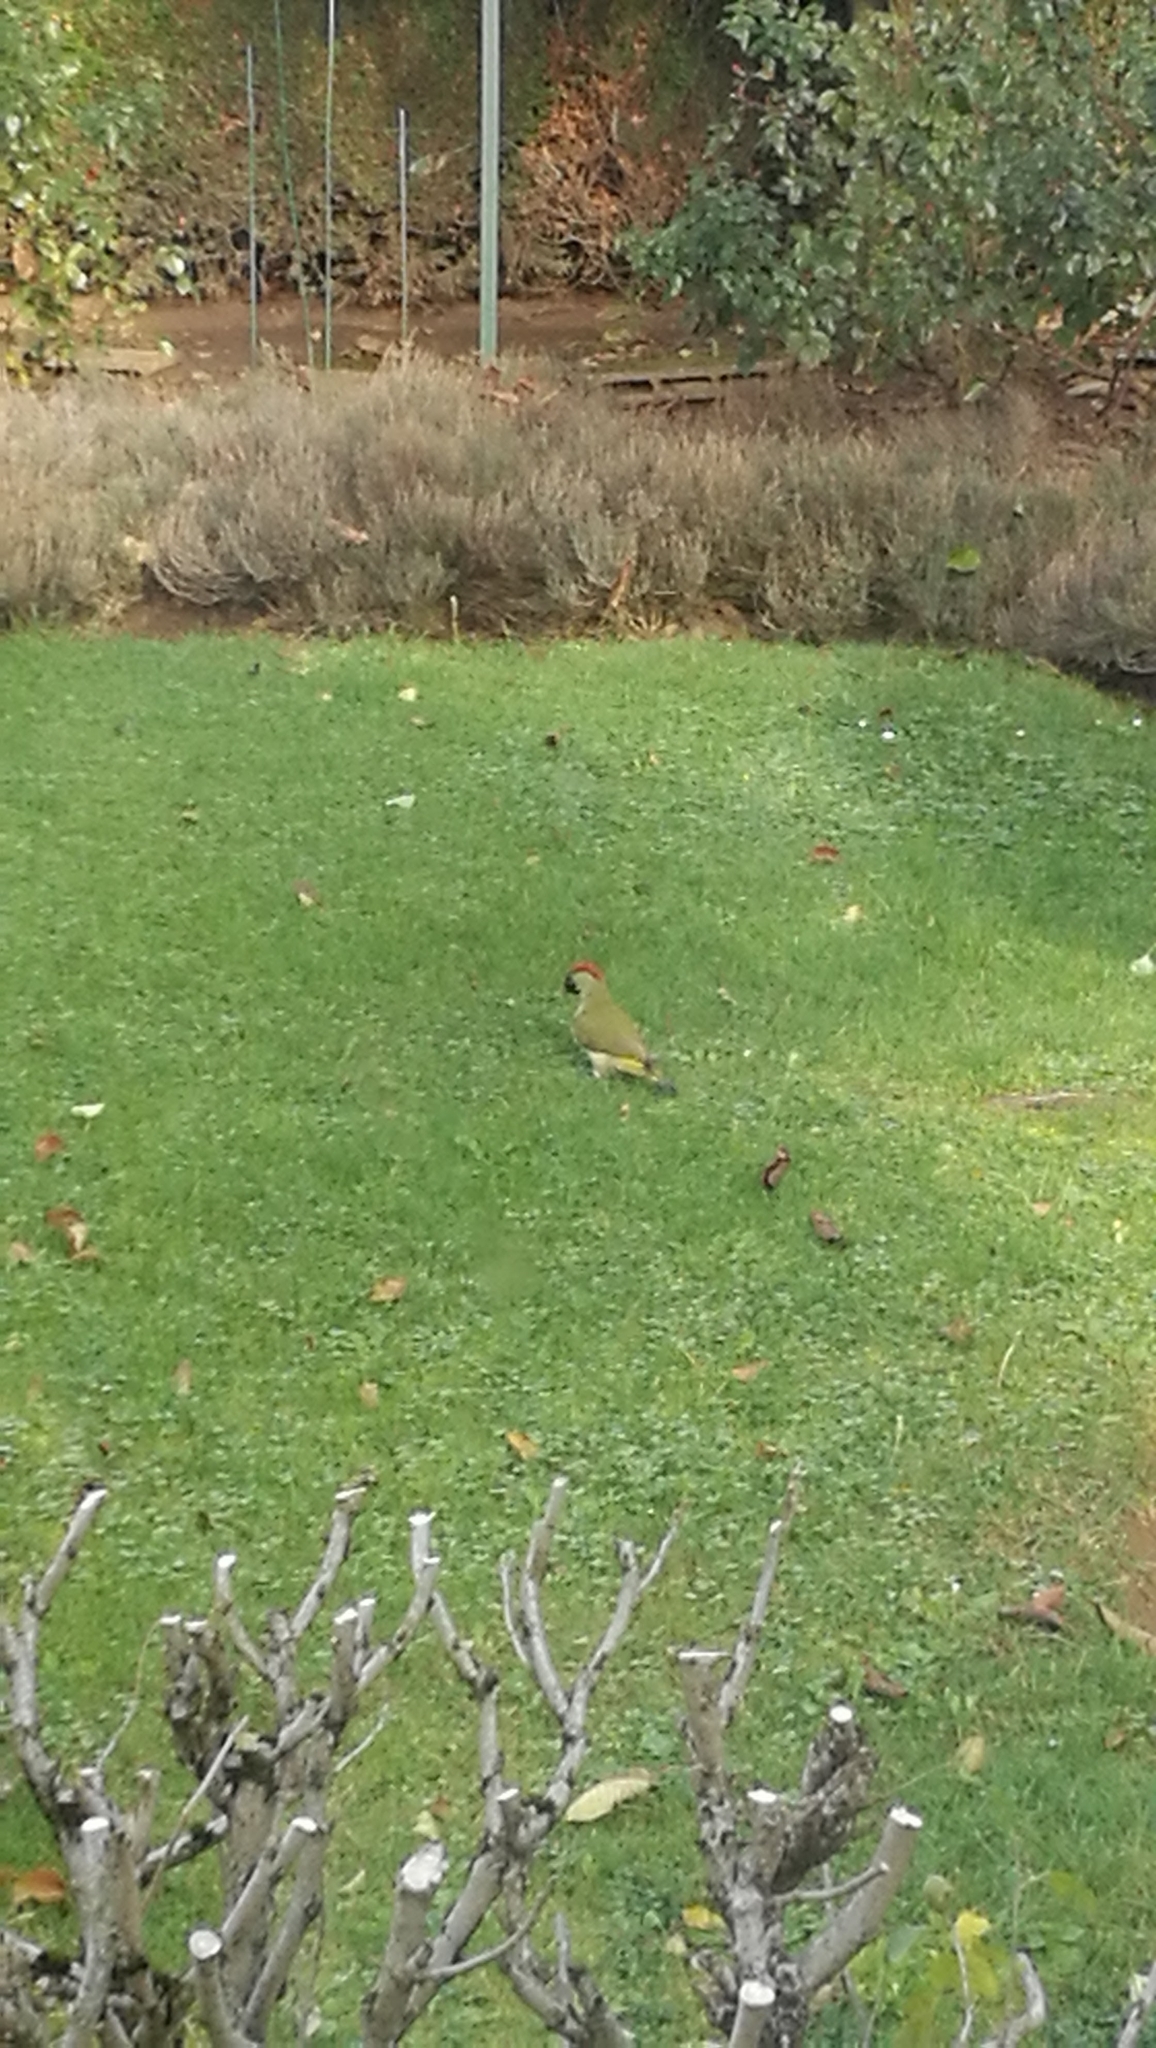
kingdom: Animalia
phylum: Chordata
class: Aves
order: Piciformes
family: Picidae
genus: Picus
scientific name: Picus viridis
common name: European green woodpecker
